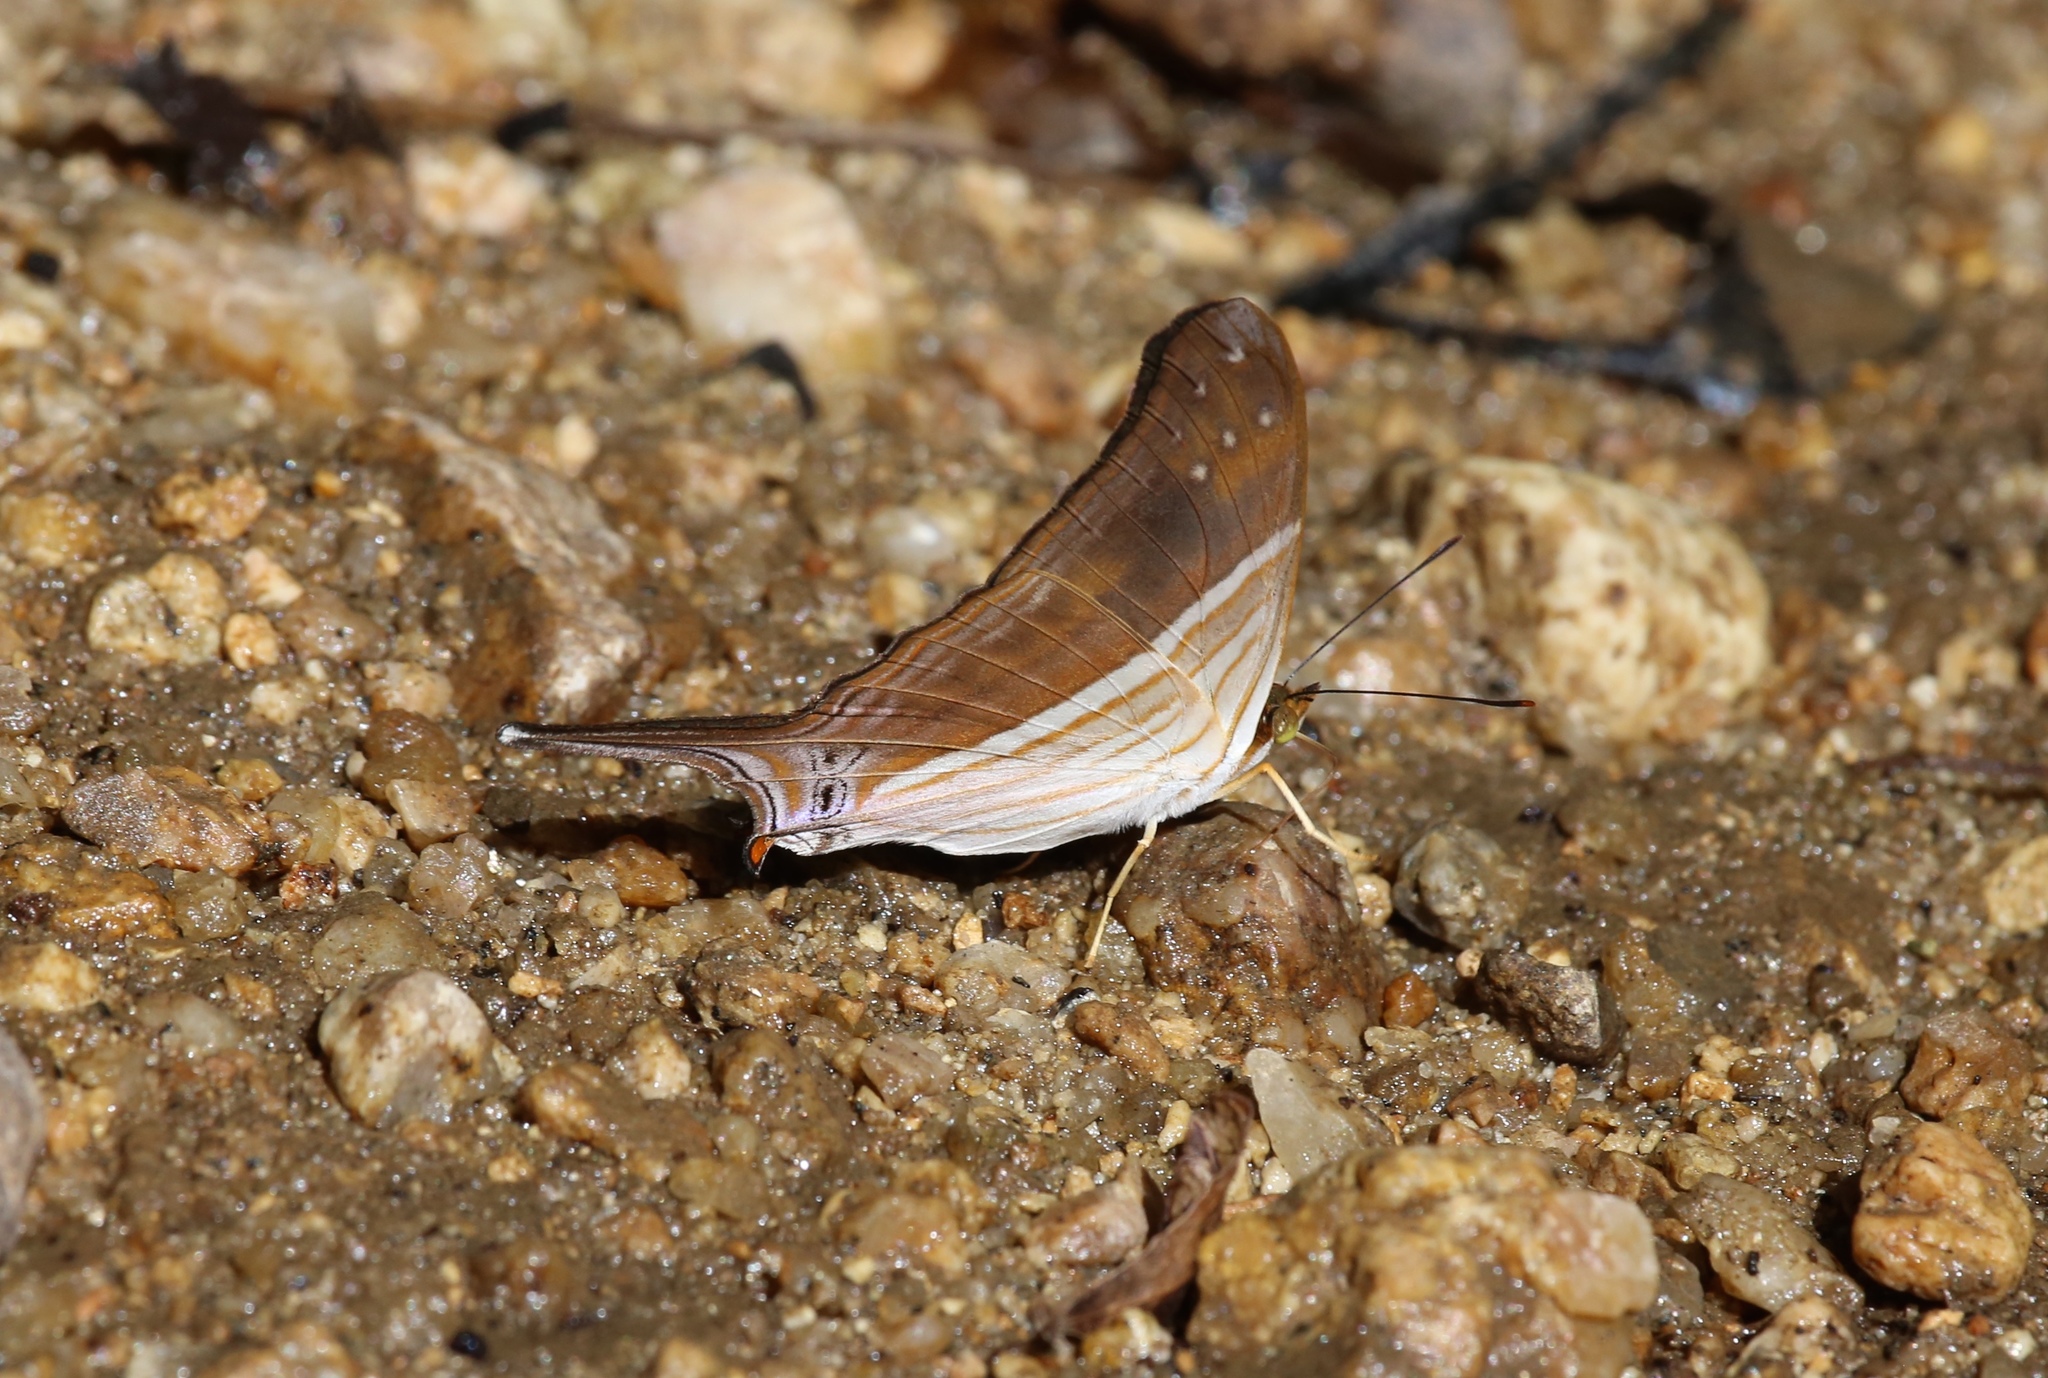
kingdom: Animalia
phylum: Arthropoda
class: Insecta
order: Lepidoptera
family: Nymphalidae
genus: Marpesia
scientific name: Marpesia chiron
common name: Many-banded daggerwing
